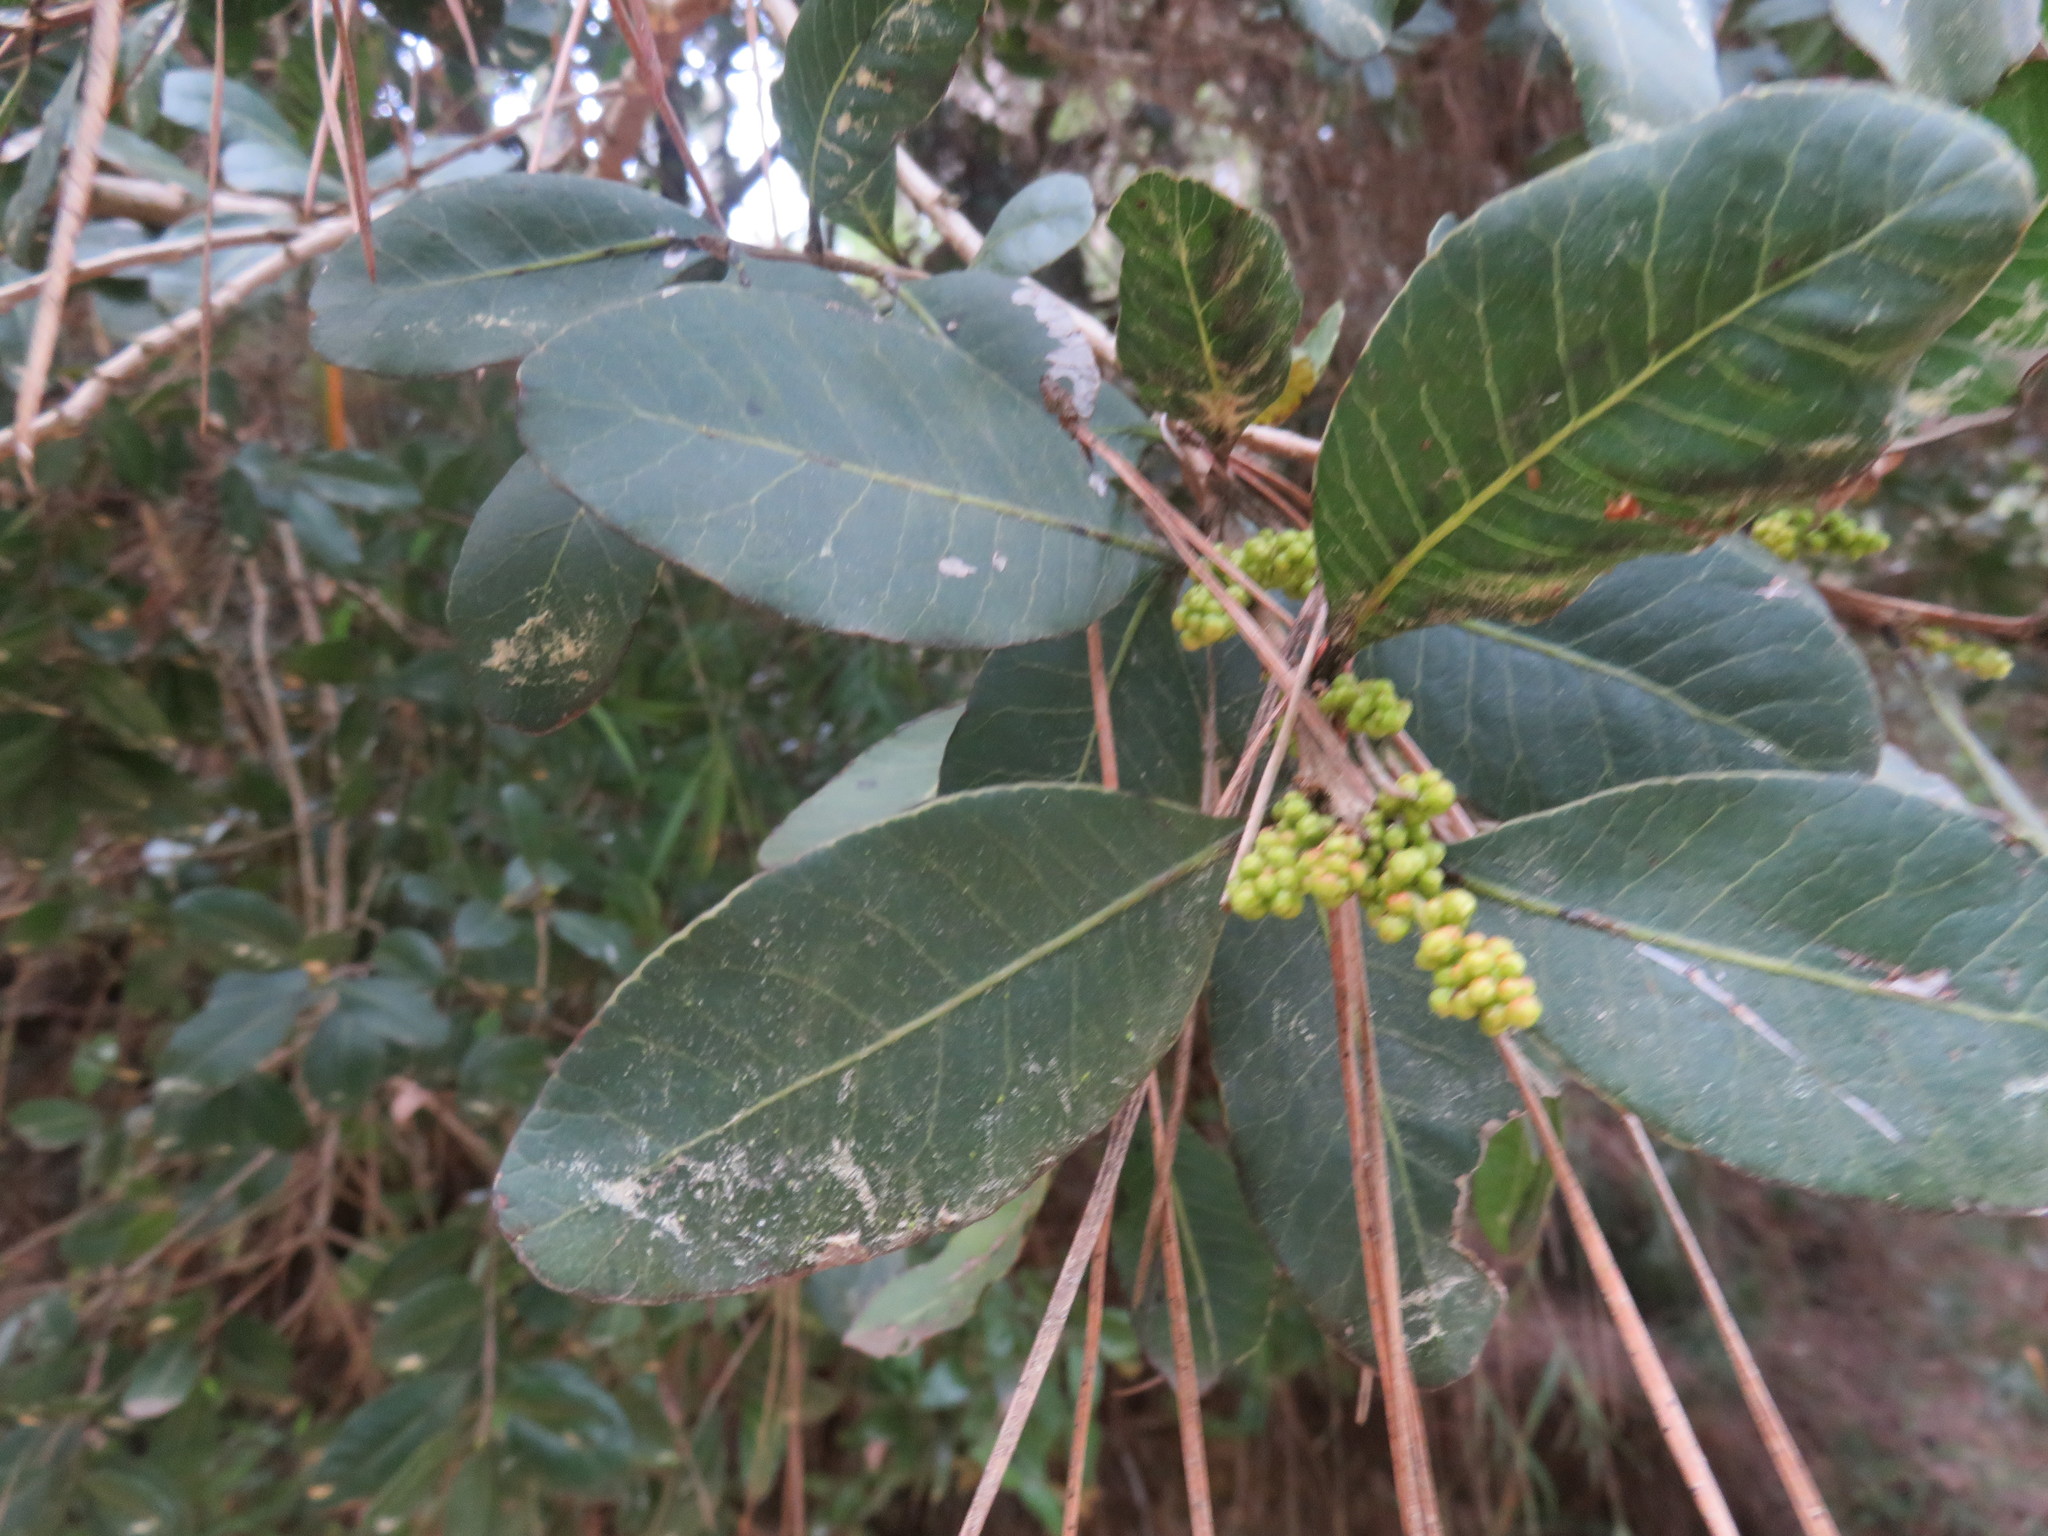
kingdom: Plantae
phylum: Tracheophyta
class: Magnoliopsida
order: Sapindales
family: Anacardiaceae
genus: Lithraea
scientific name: Lithraea caustica
